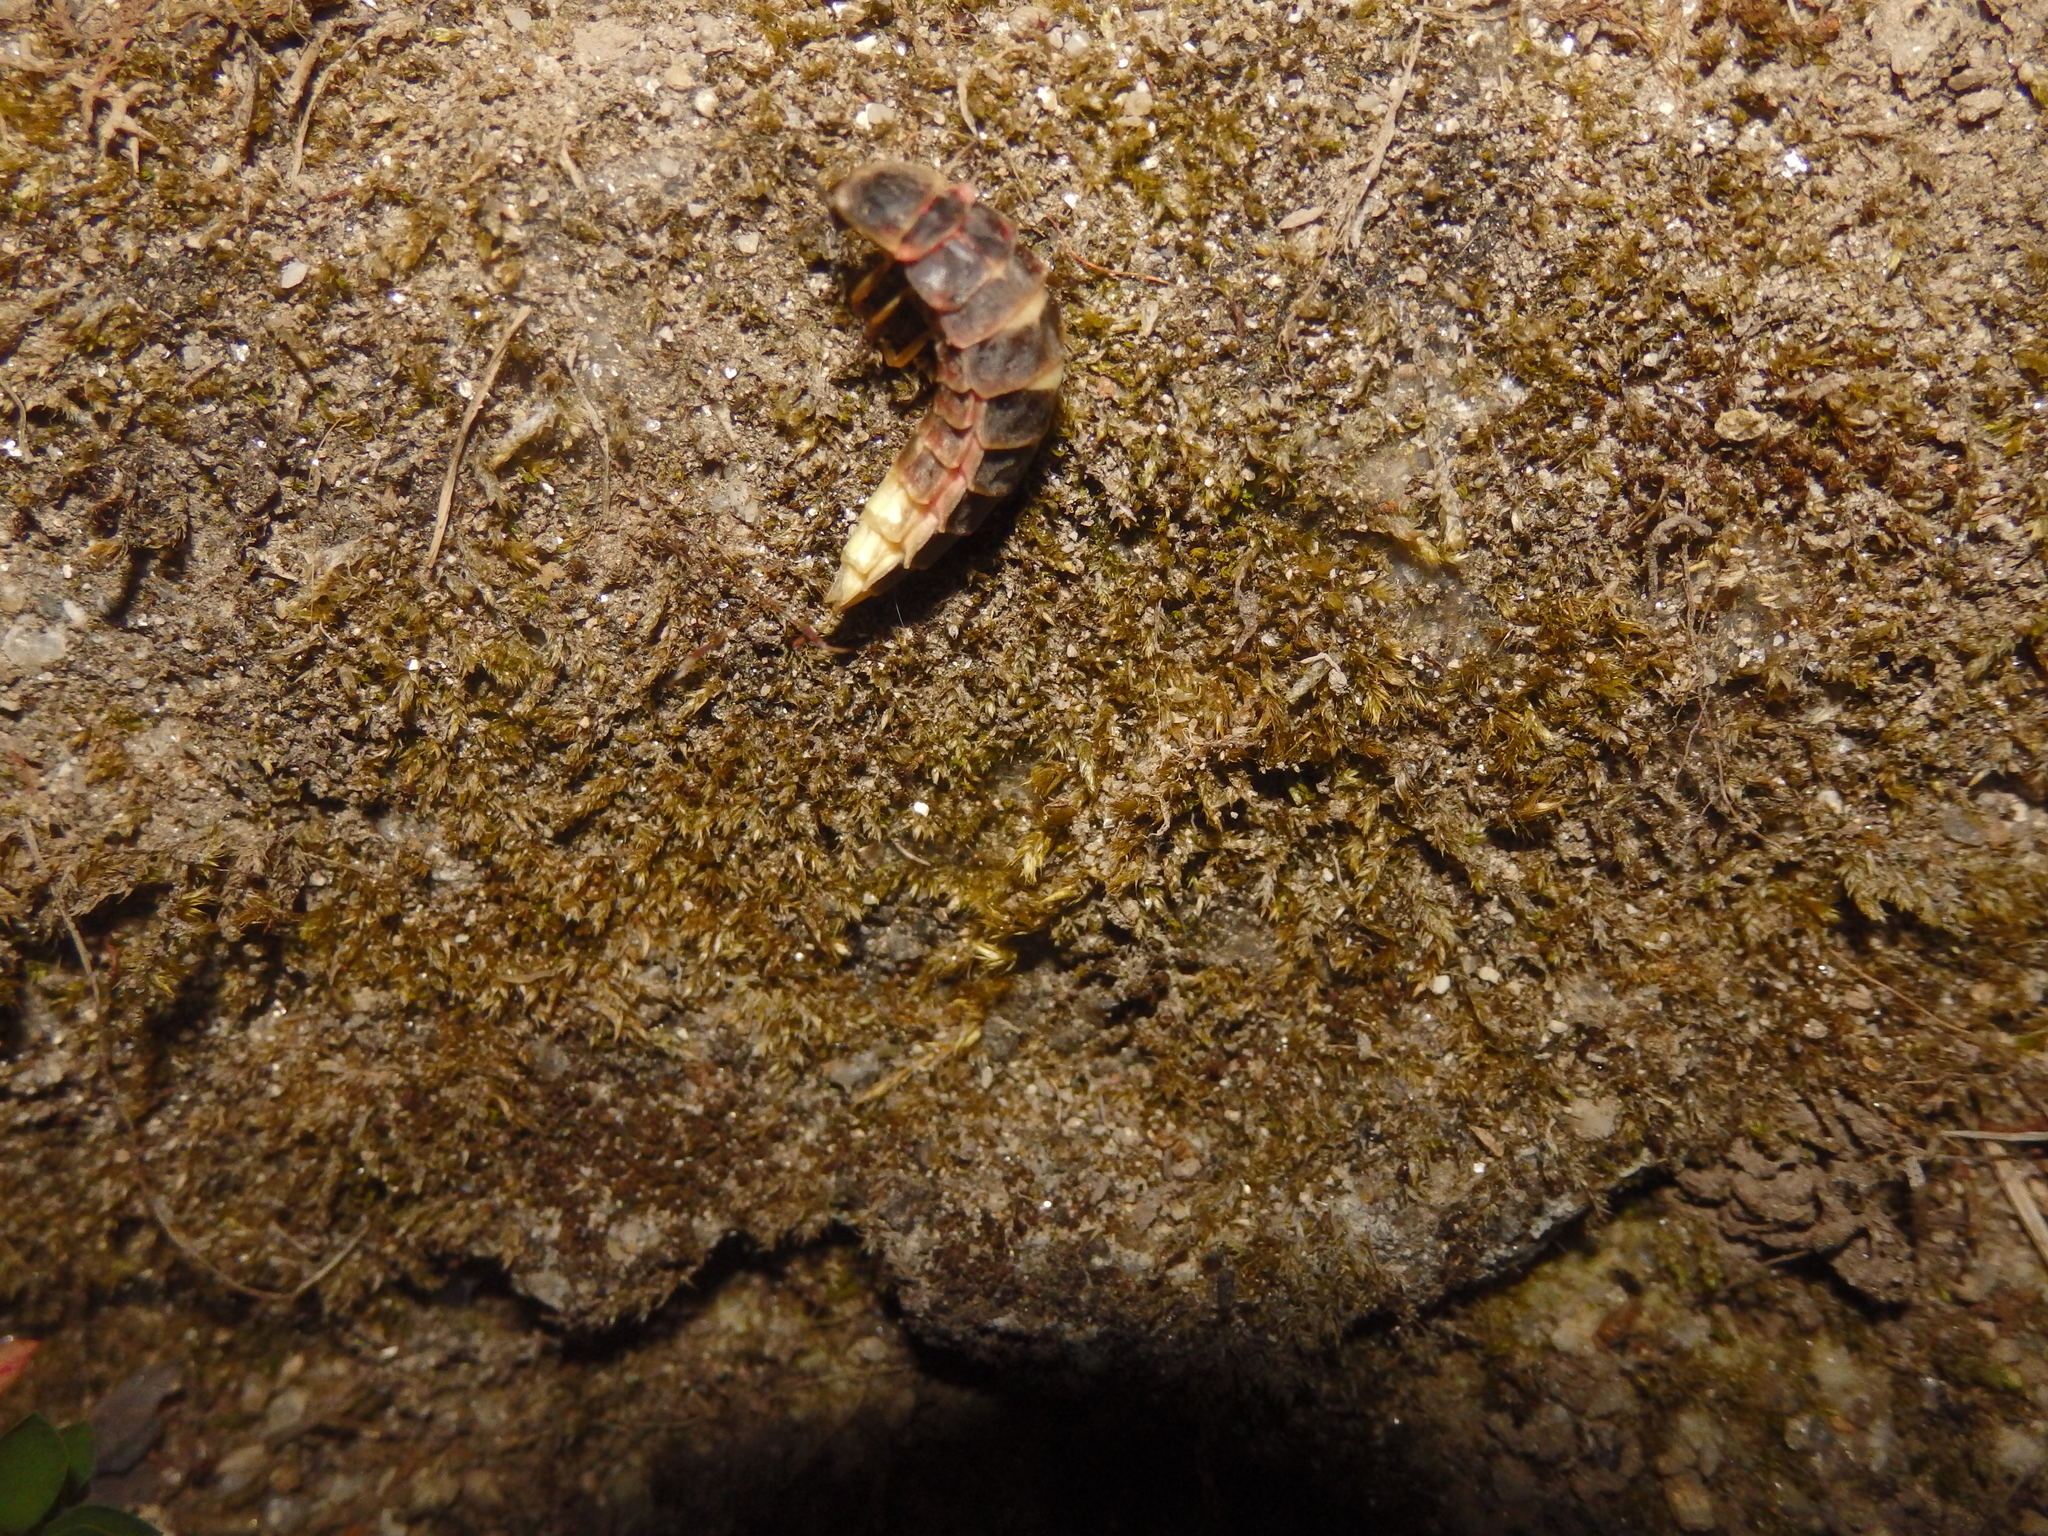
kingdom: Animalia
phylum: Arthropoda
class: Insecta
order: Coleoptera
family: Lampyridae
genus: Lampyris
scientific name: Lampyris noctiluca
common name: Glow-worm
